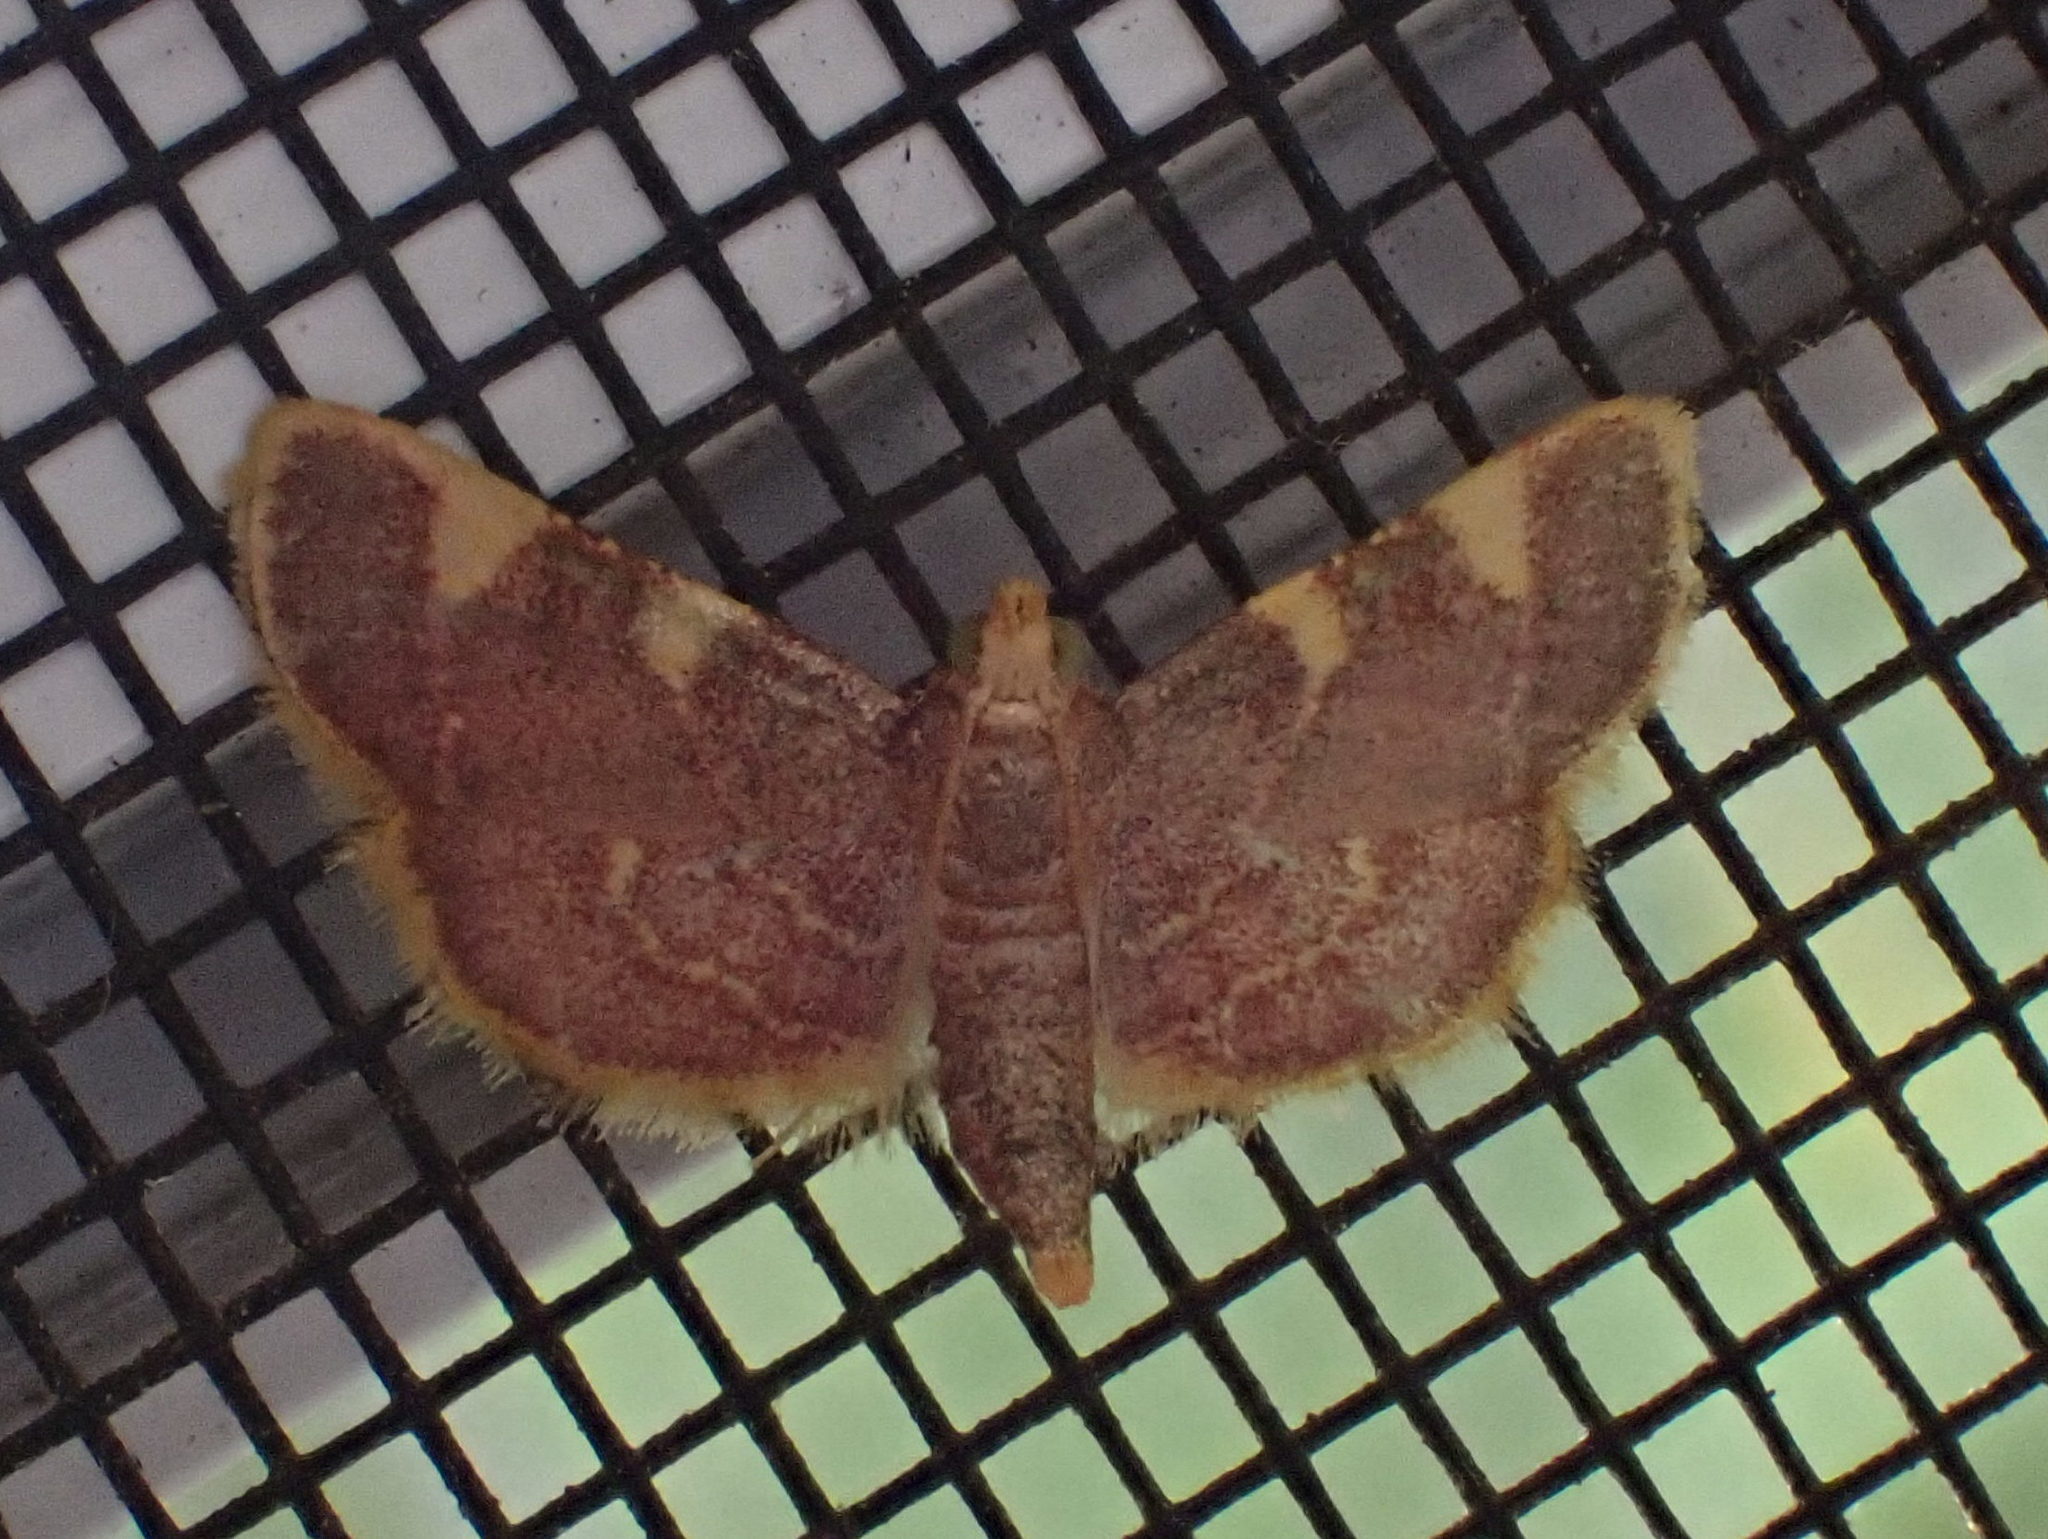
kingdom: Animalia
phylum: Arthropoda
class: Insecta
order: Lepidoptera
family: Pyralidae
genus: Hypsopygia
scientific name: Hypsopygia costalis
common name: Gold triangle
